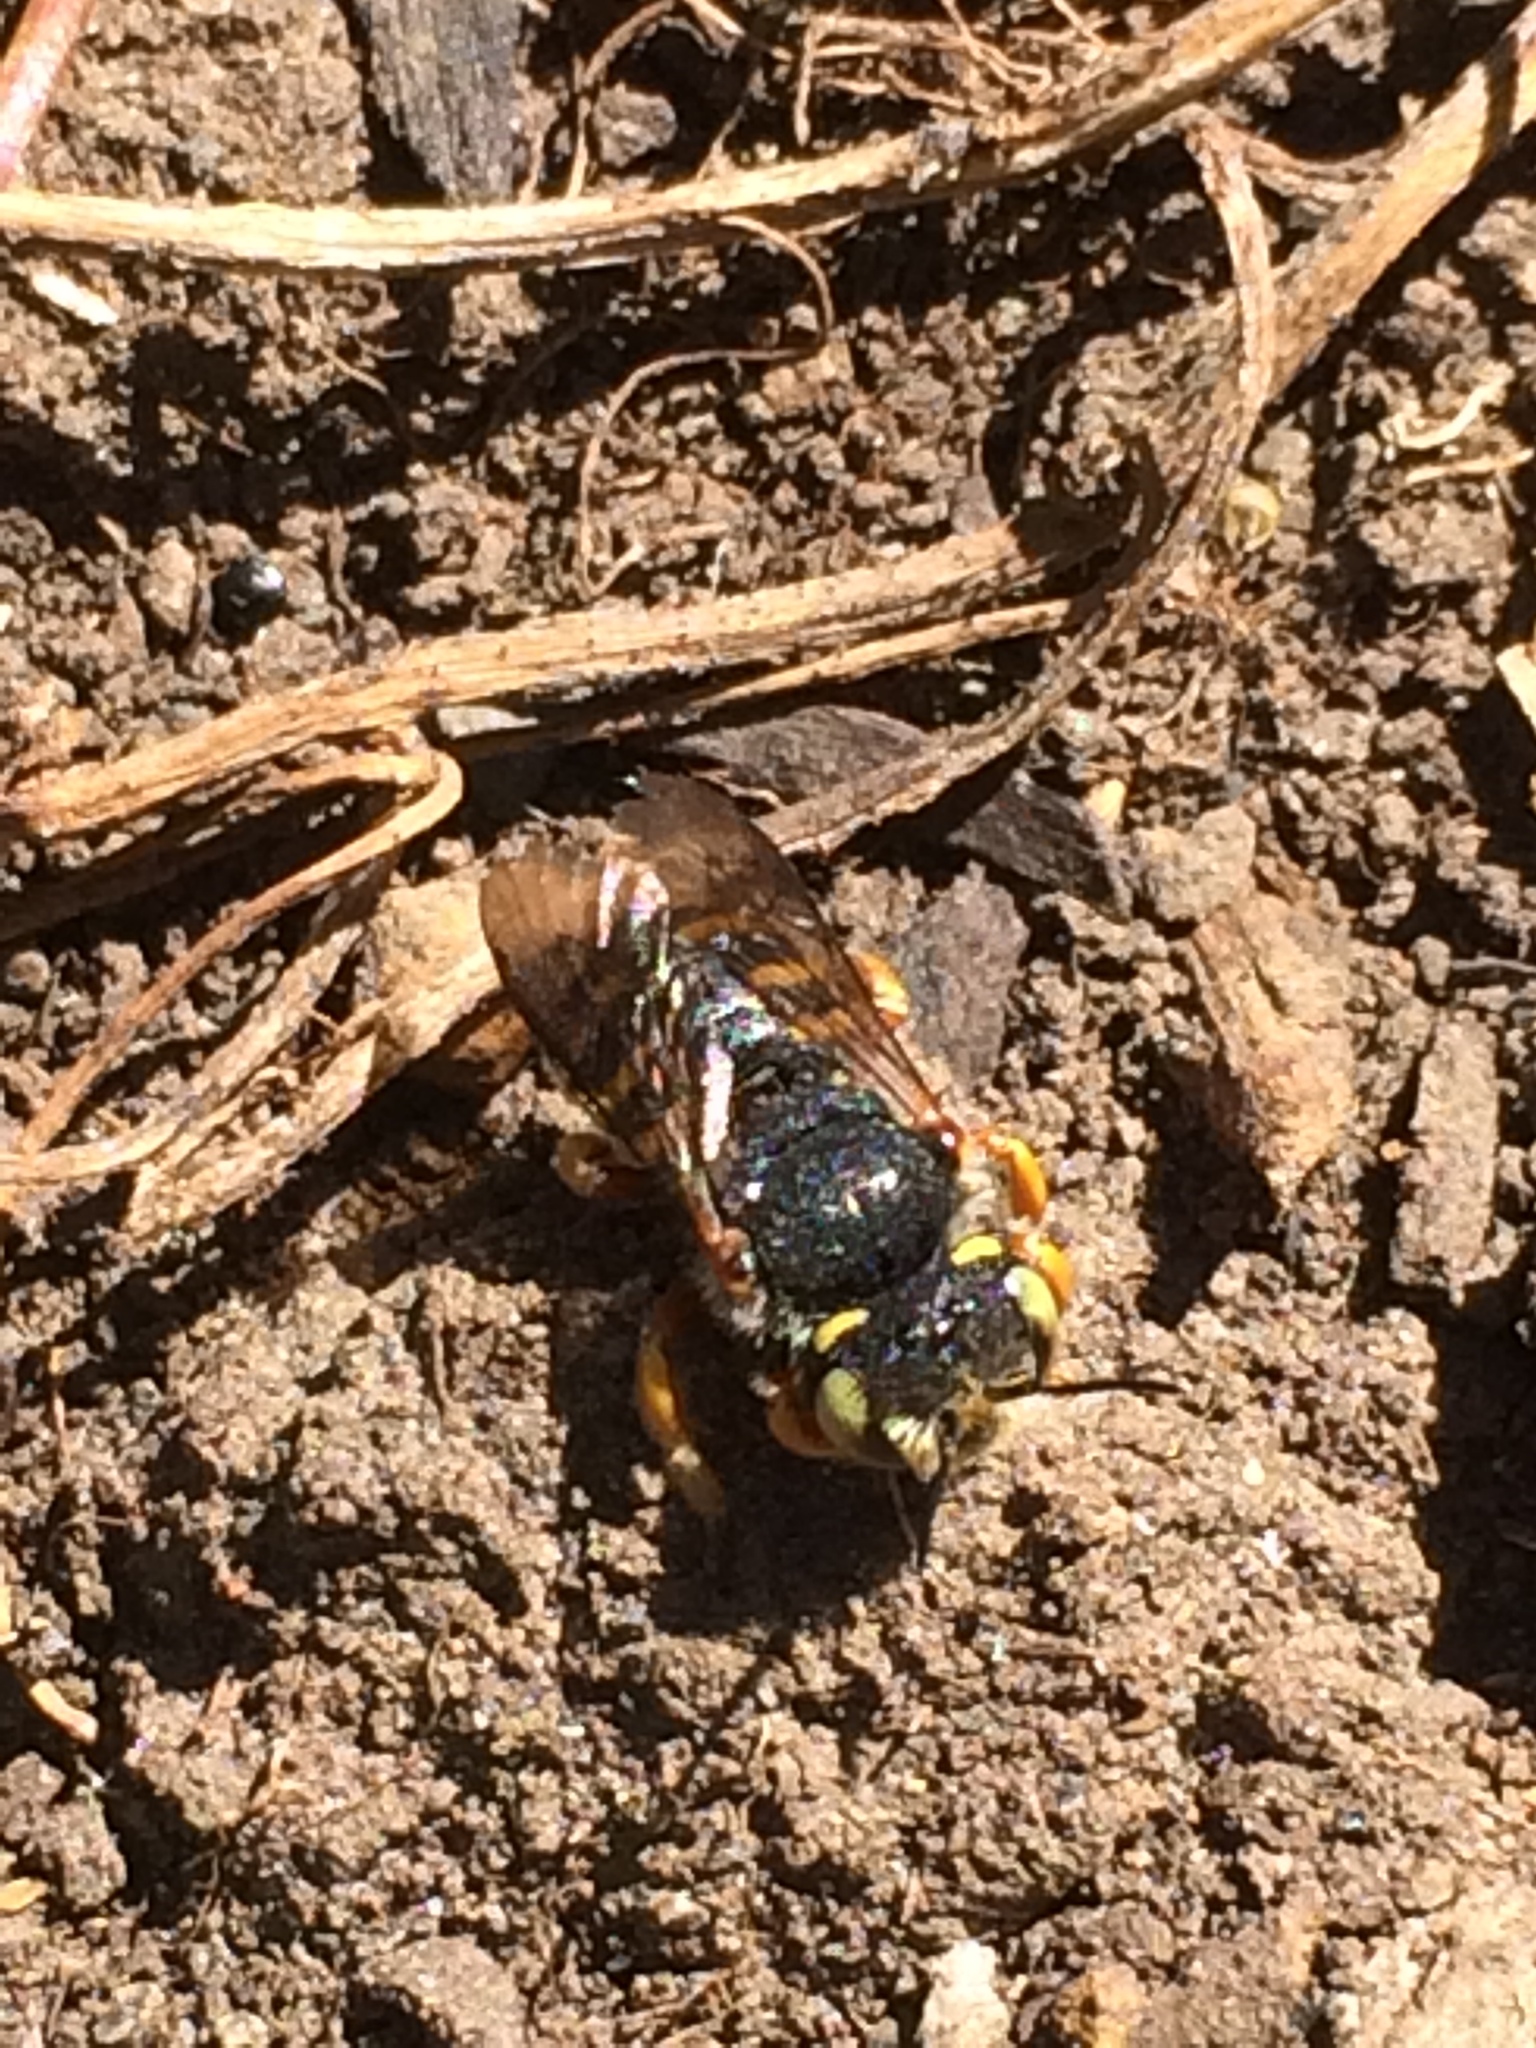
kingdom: Animalia
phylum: Arthropoda
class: Insecta
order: Hymenoptera
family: Megachilidae
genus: Anthidium
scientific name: Anthidium oblongatum
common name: Oblong wool carder bee
